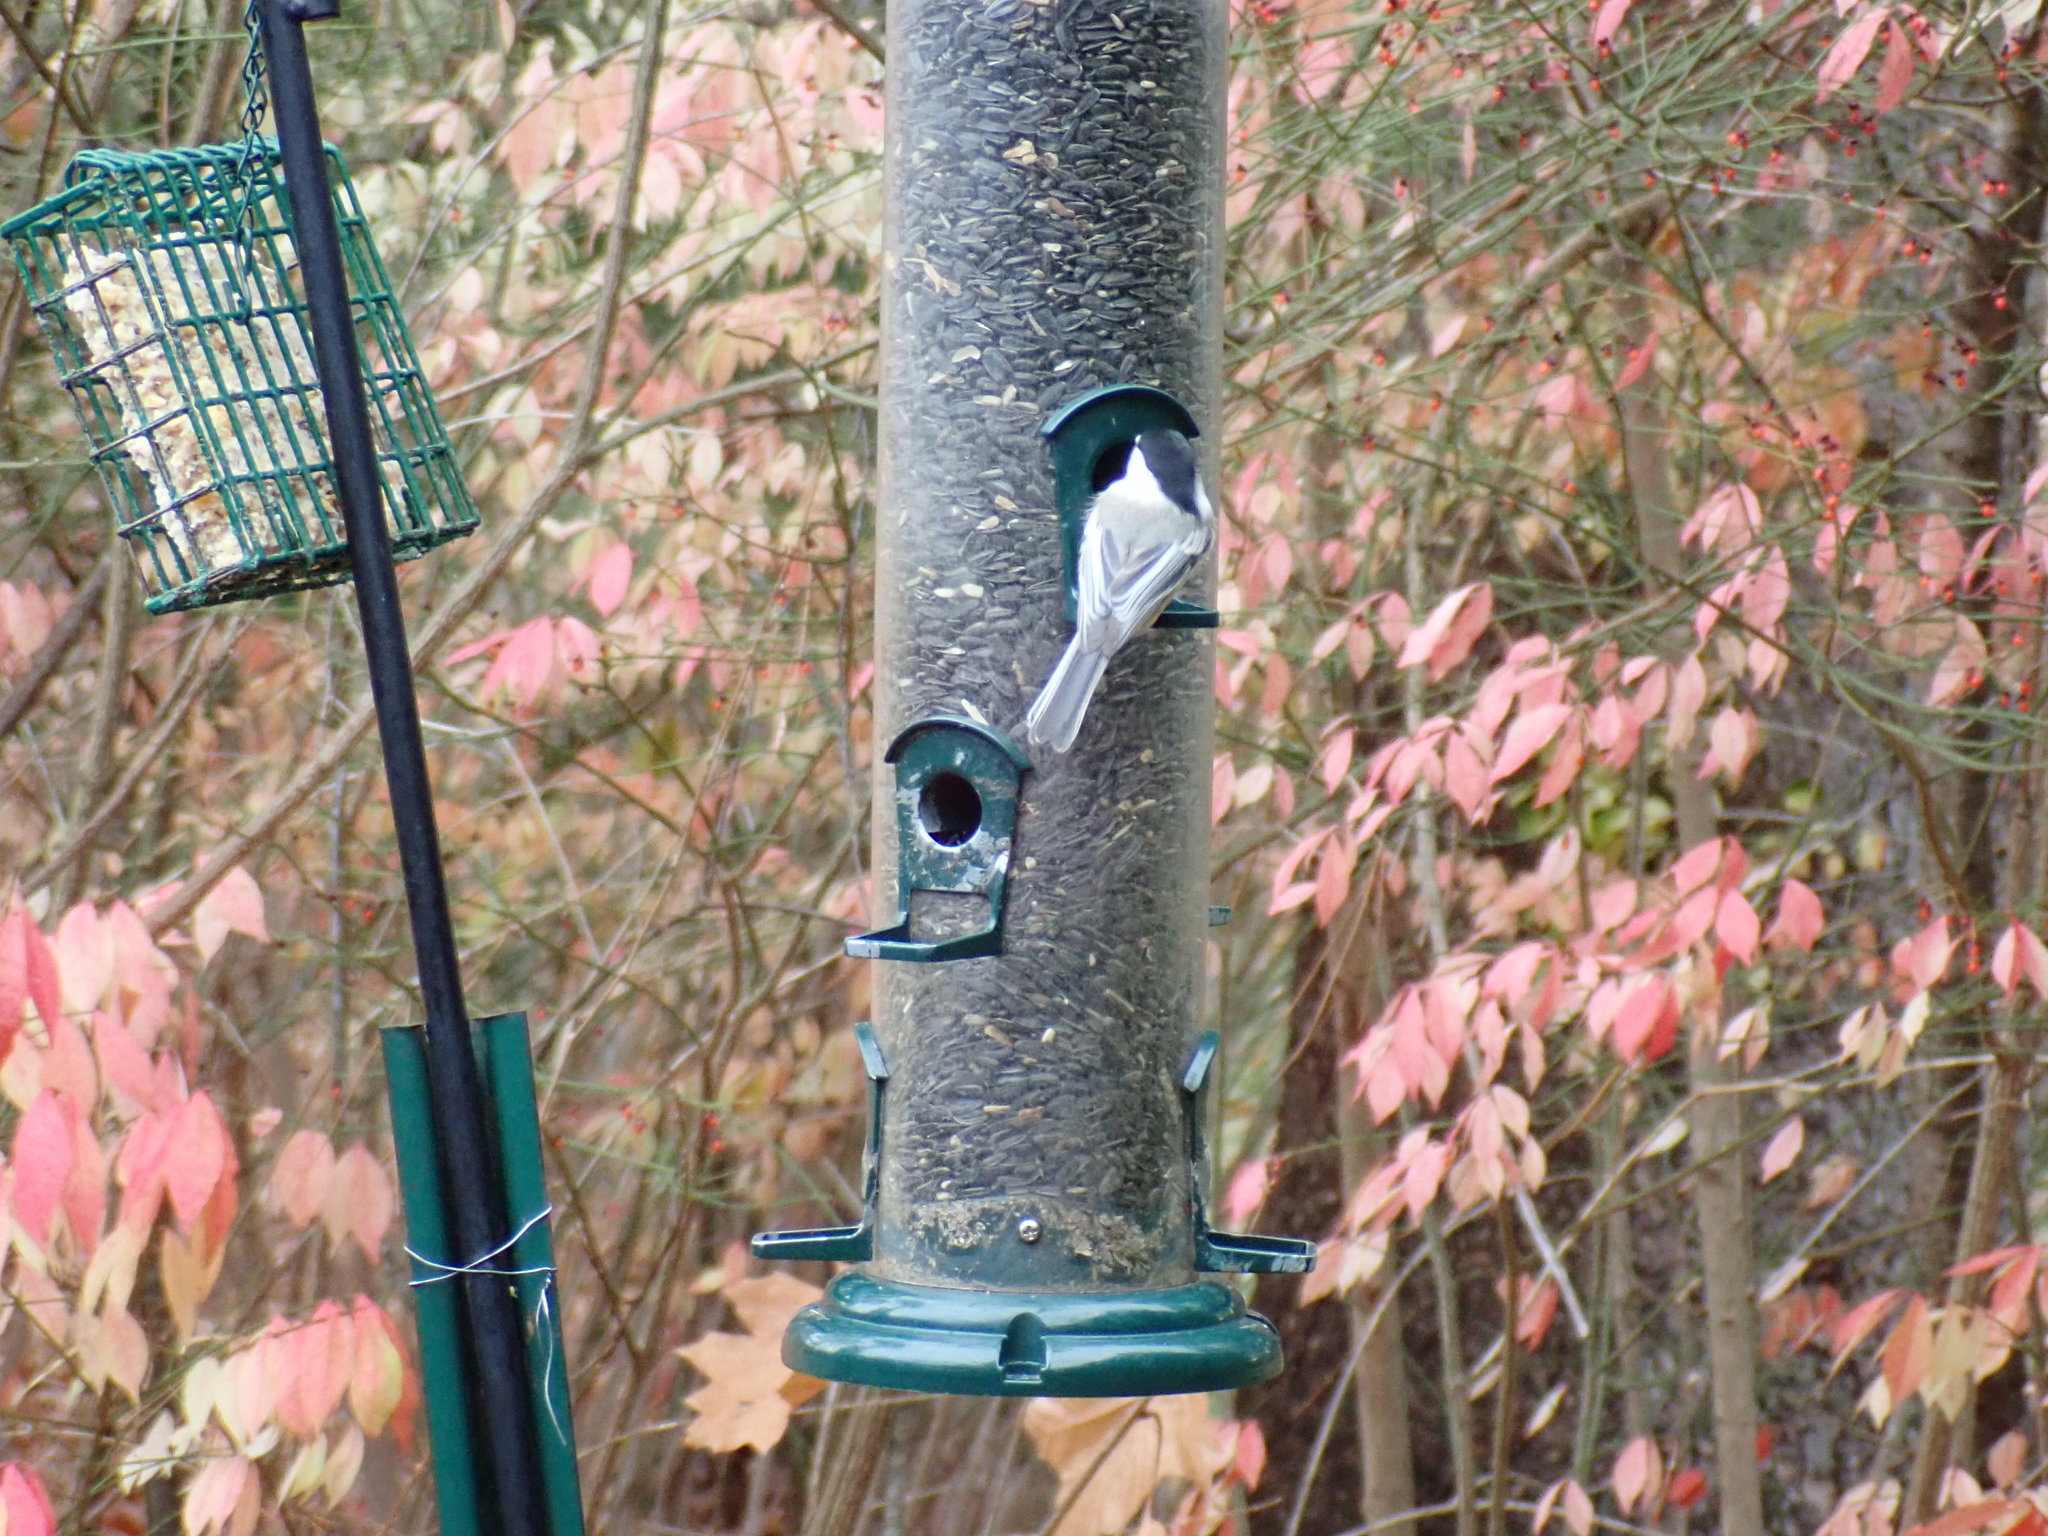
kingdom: Animalia
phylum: Chordata
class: Aves
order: Passeriformes
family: Paridae
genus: Poecile
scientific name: Poecile atricapillus
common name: Black-capped chickadee
